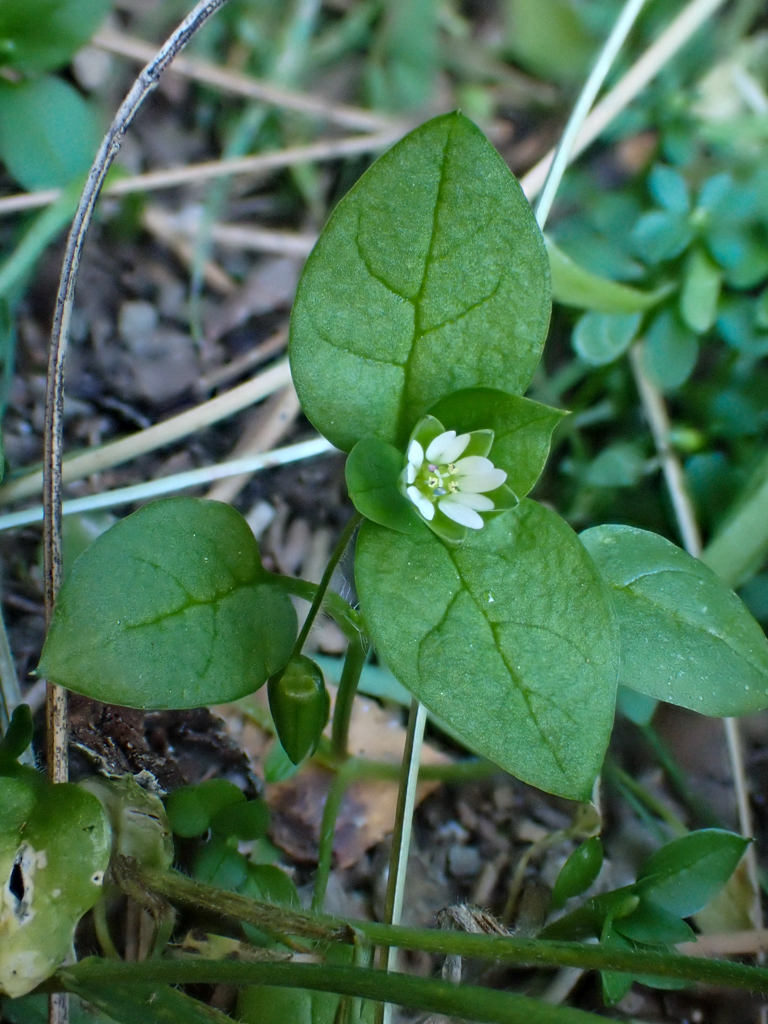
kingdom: Plantae
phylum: Tracheophyta
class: Magnoliopsida
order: Caryophyllales
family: Caryophyllaceae
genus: Stellaria
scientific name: Stellaria media
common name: Common chickweed
